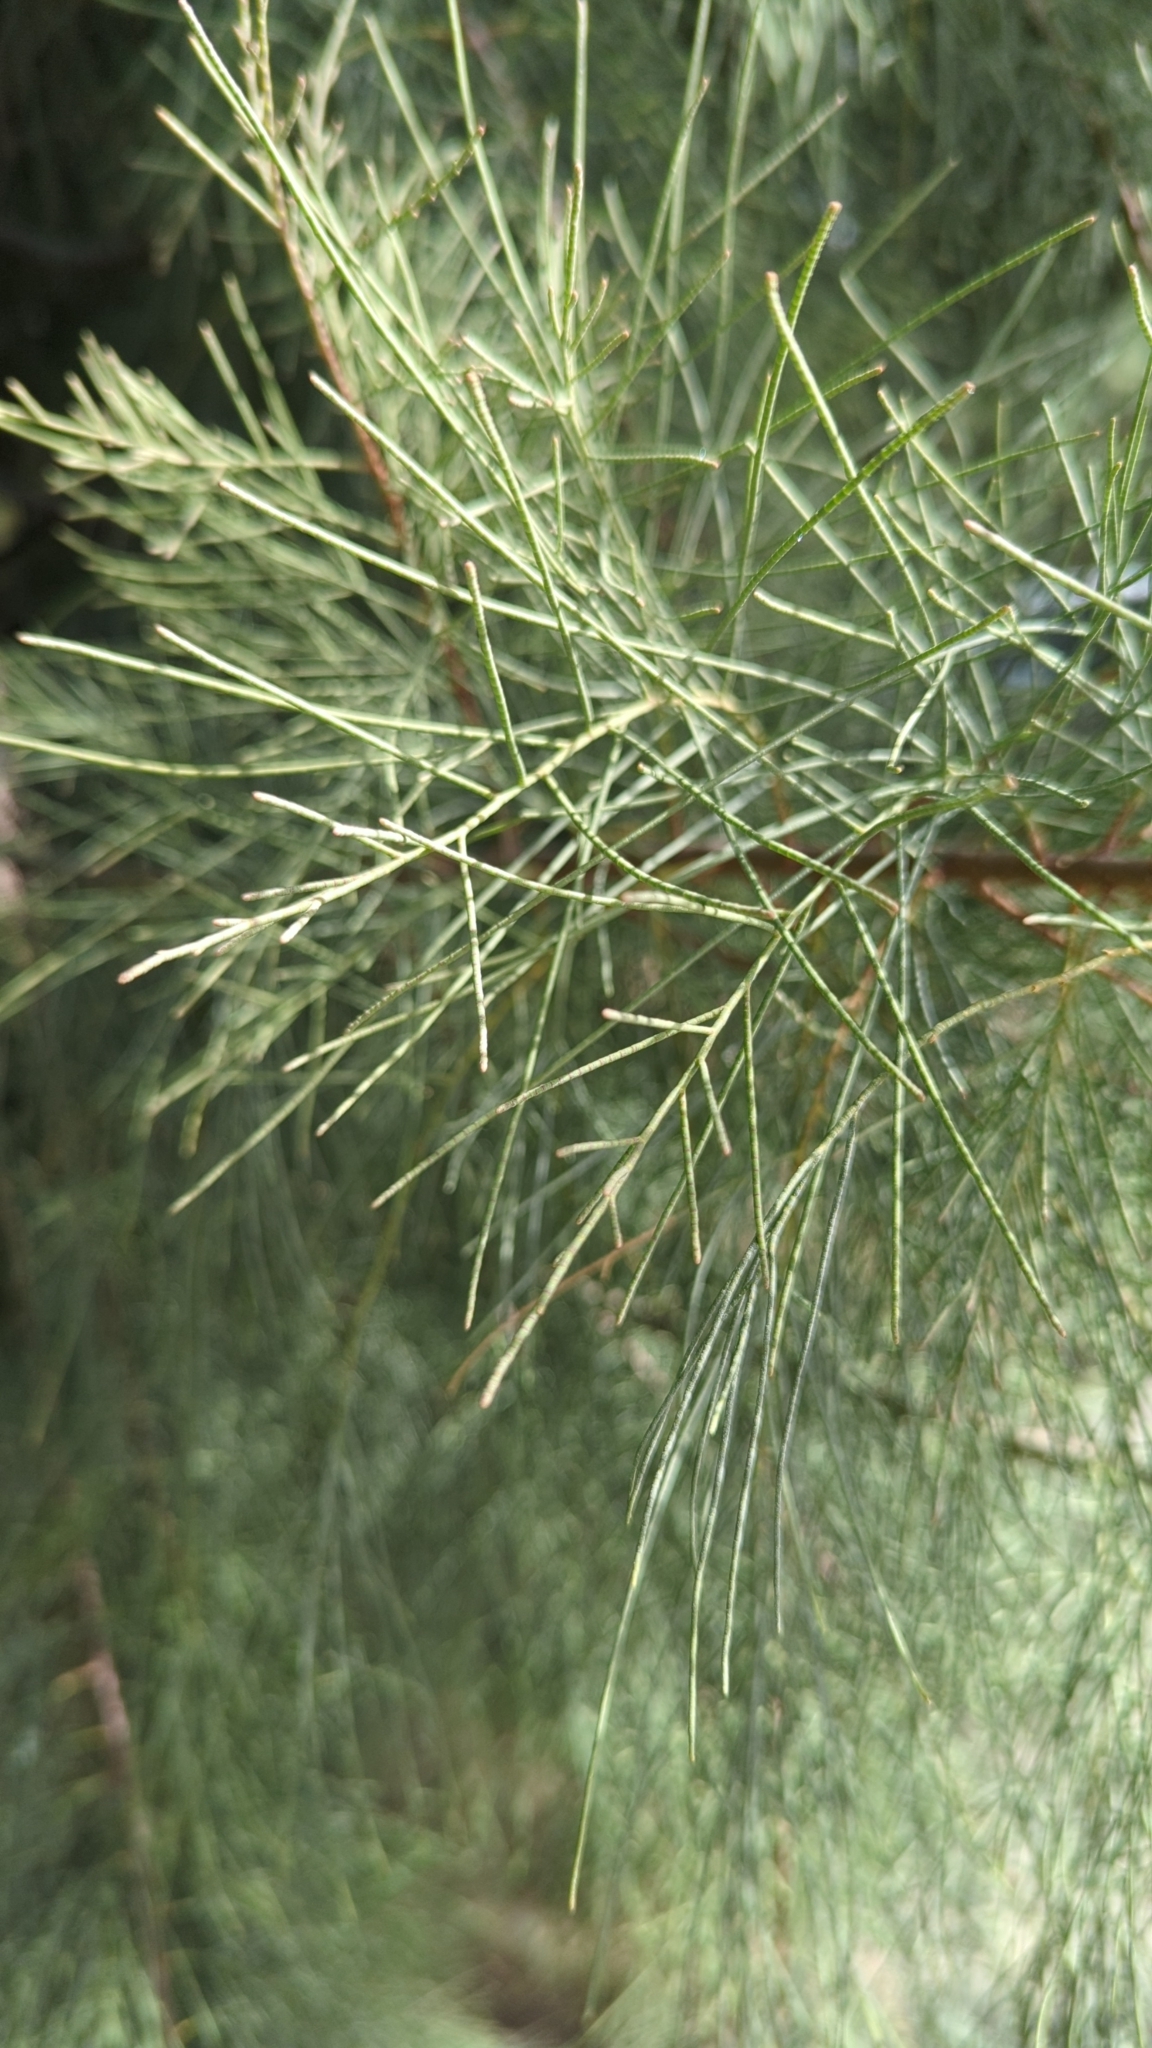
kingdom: Plantae
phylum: Tracheophyta
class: Magnoliopsida
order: Caryophyllales
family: Tamaricaceae
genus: Tamarix
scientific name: Tamarix aphylla
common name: Athel tamarisk
